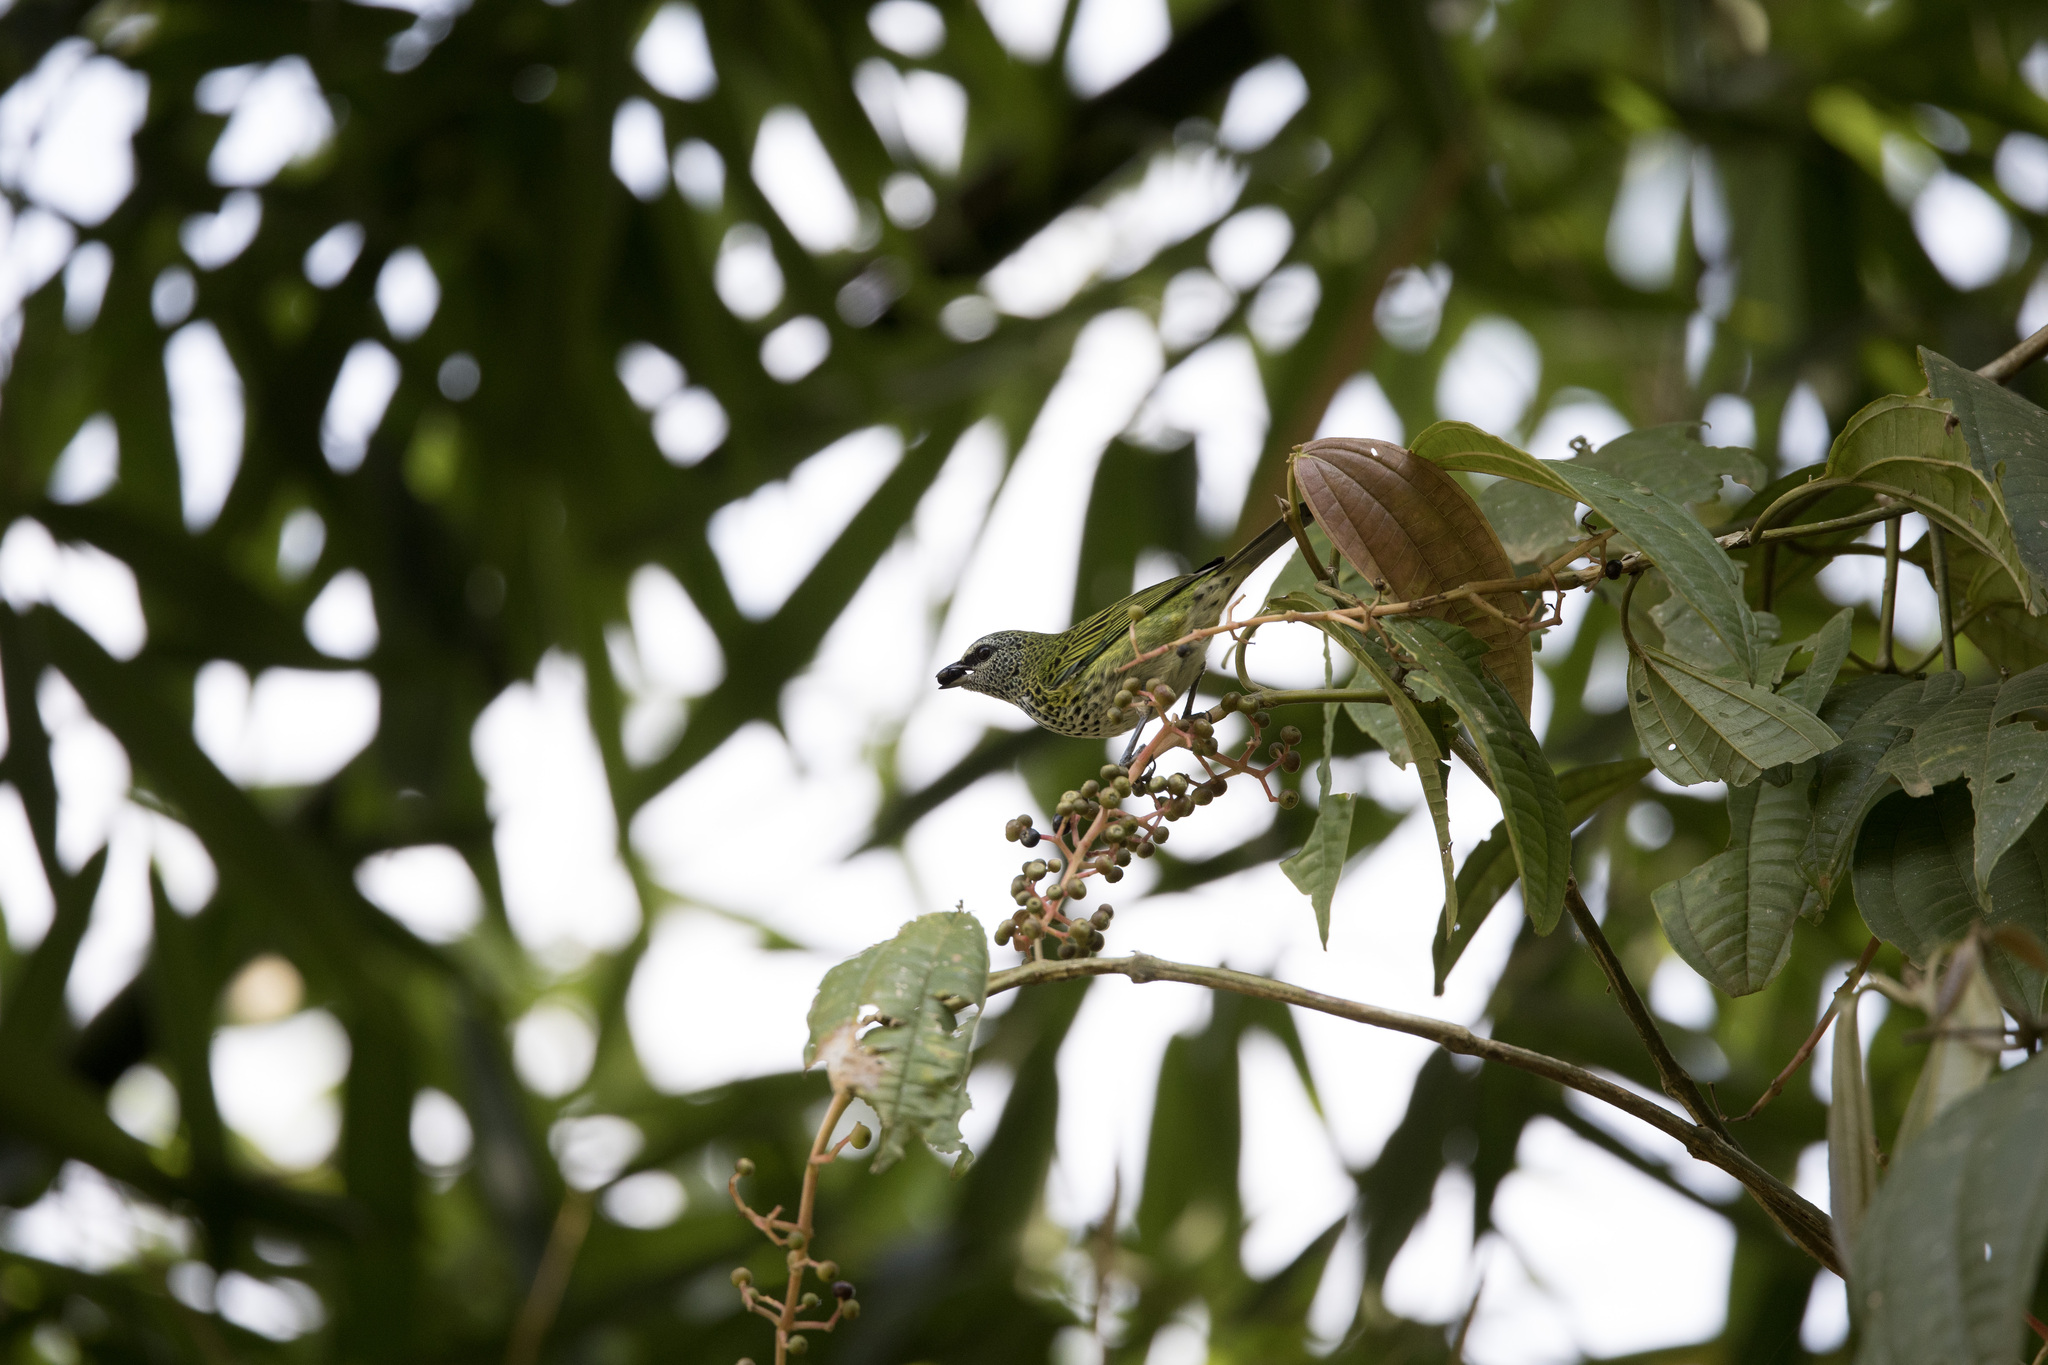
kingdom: Animalia
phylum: Chordata
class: Aves
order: Passeriformes
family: Thraupidae
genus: Ixothraupis
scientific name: Ixothraupis punctata
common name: Spotted tanager
